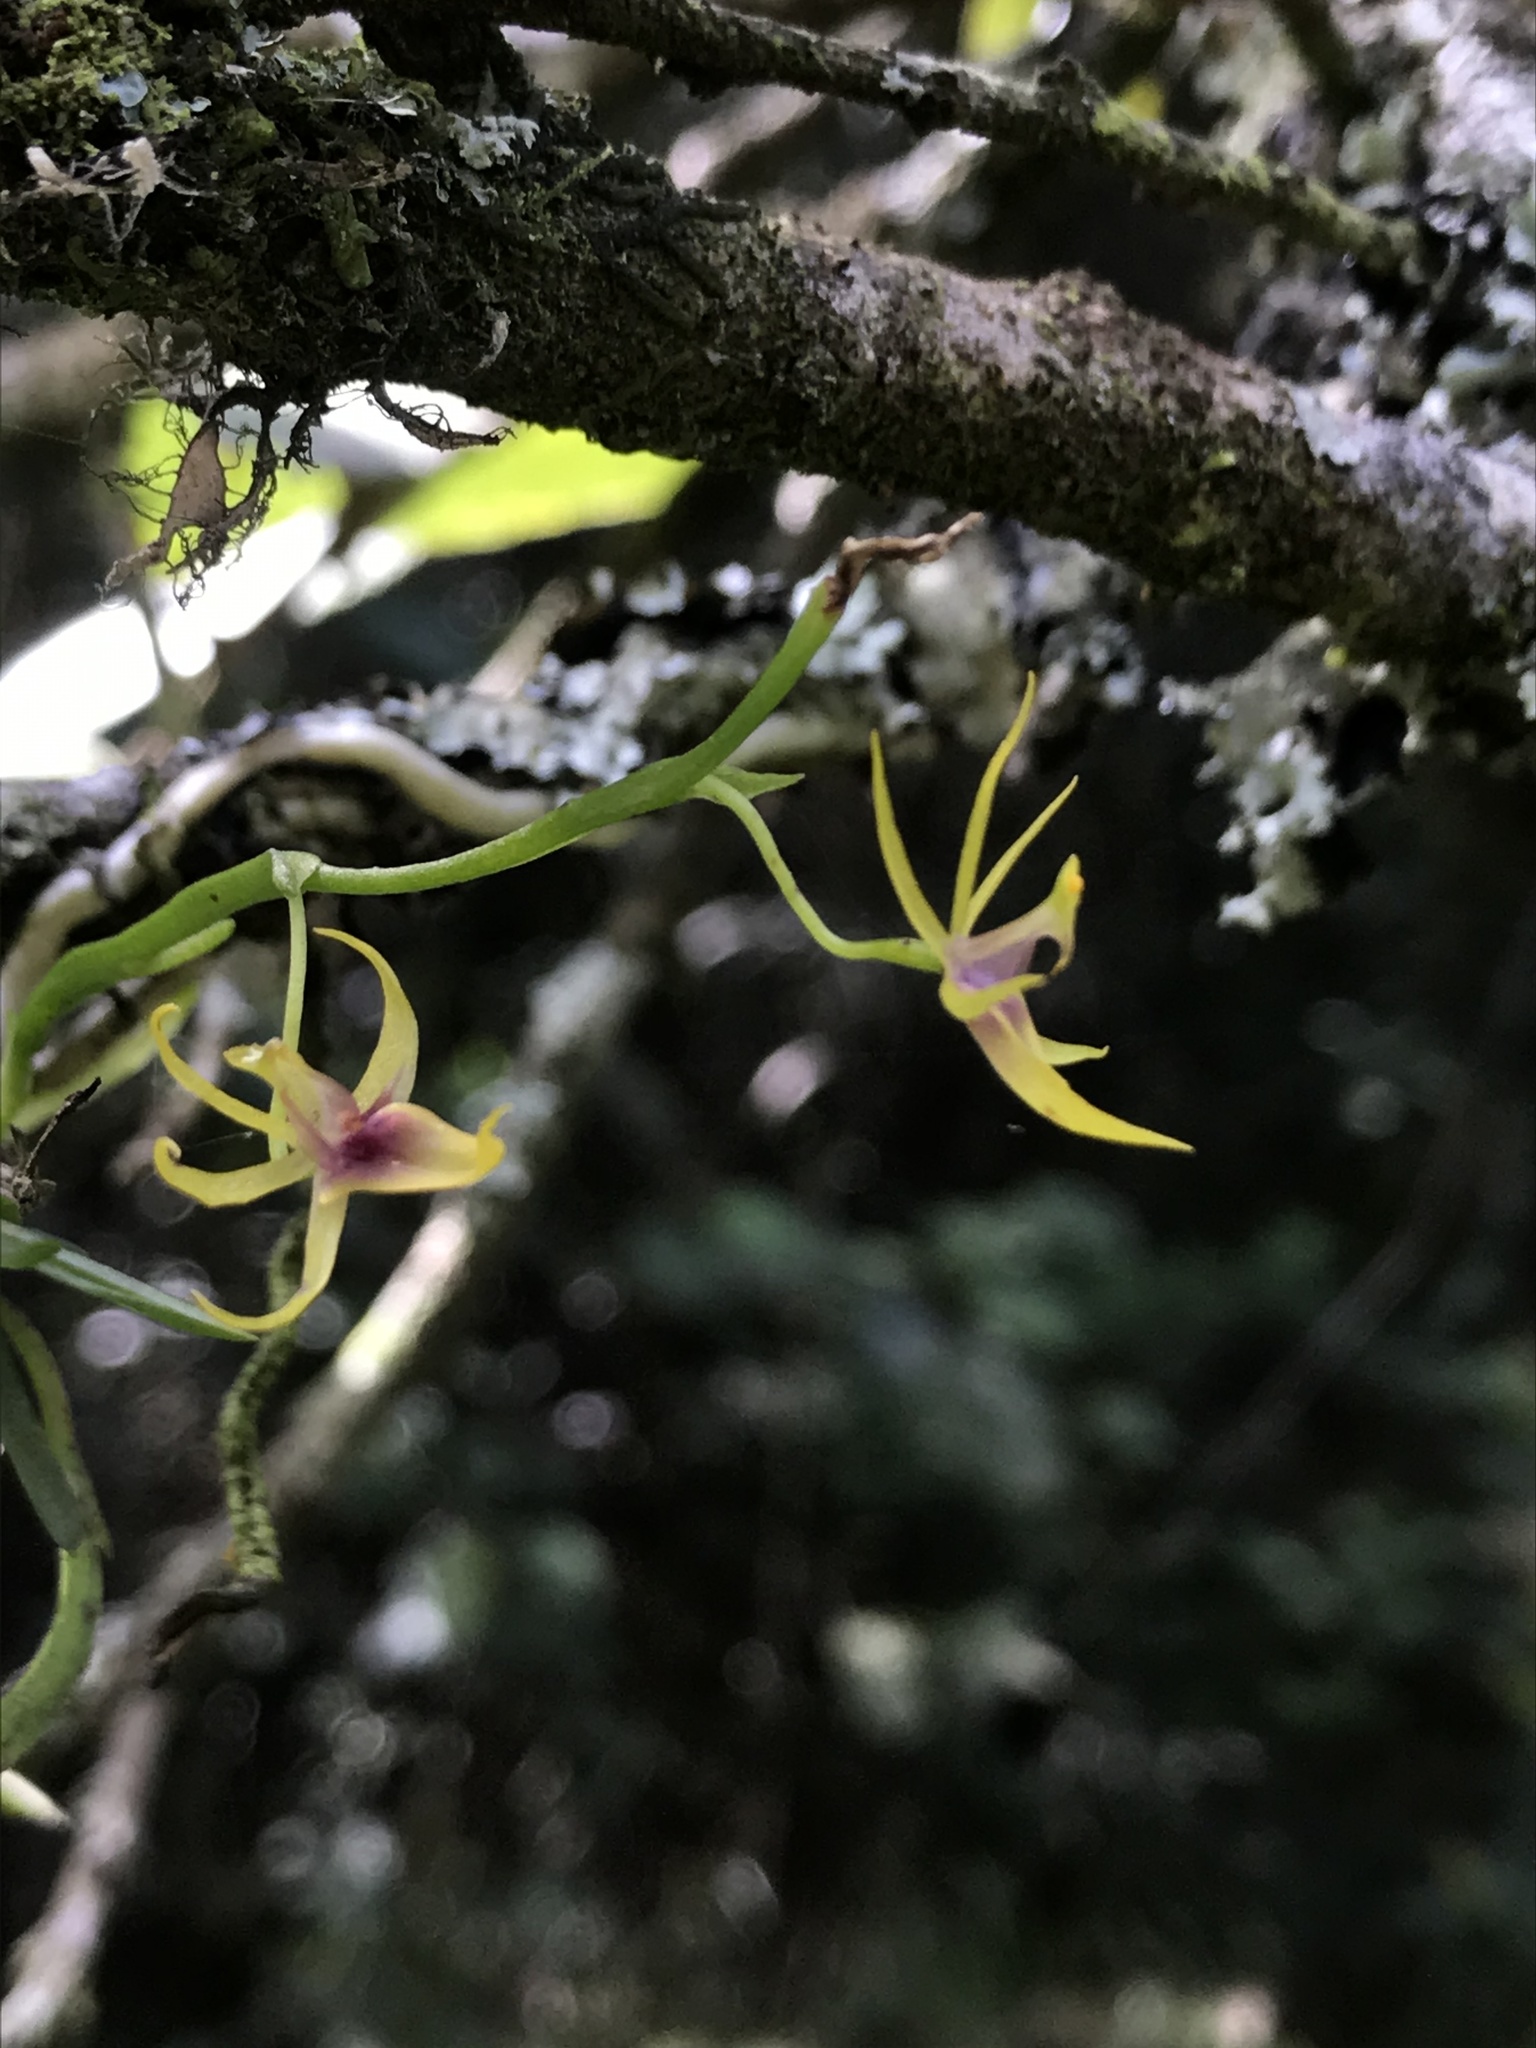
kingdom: Plantae
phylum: Tracheophyta
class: Liliopsida
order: Asparagales
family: Orchidaceae
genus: Hofmeisterella
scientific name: Hofmeisterella eumicroscopica
